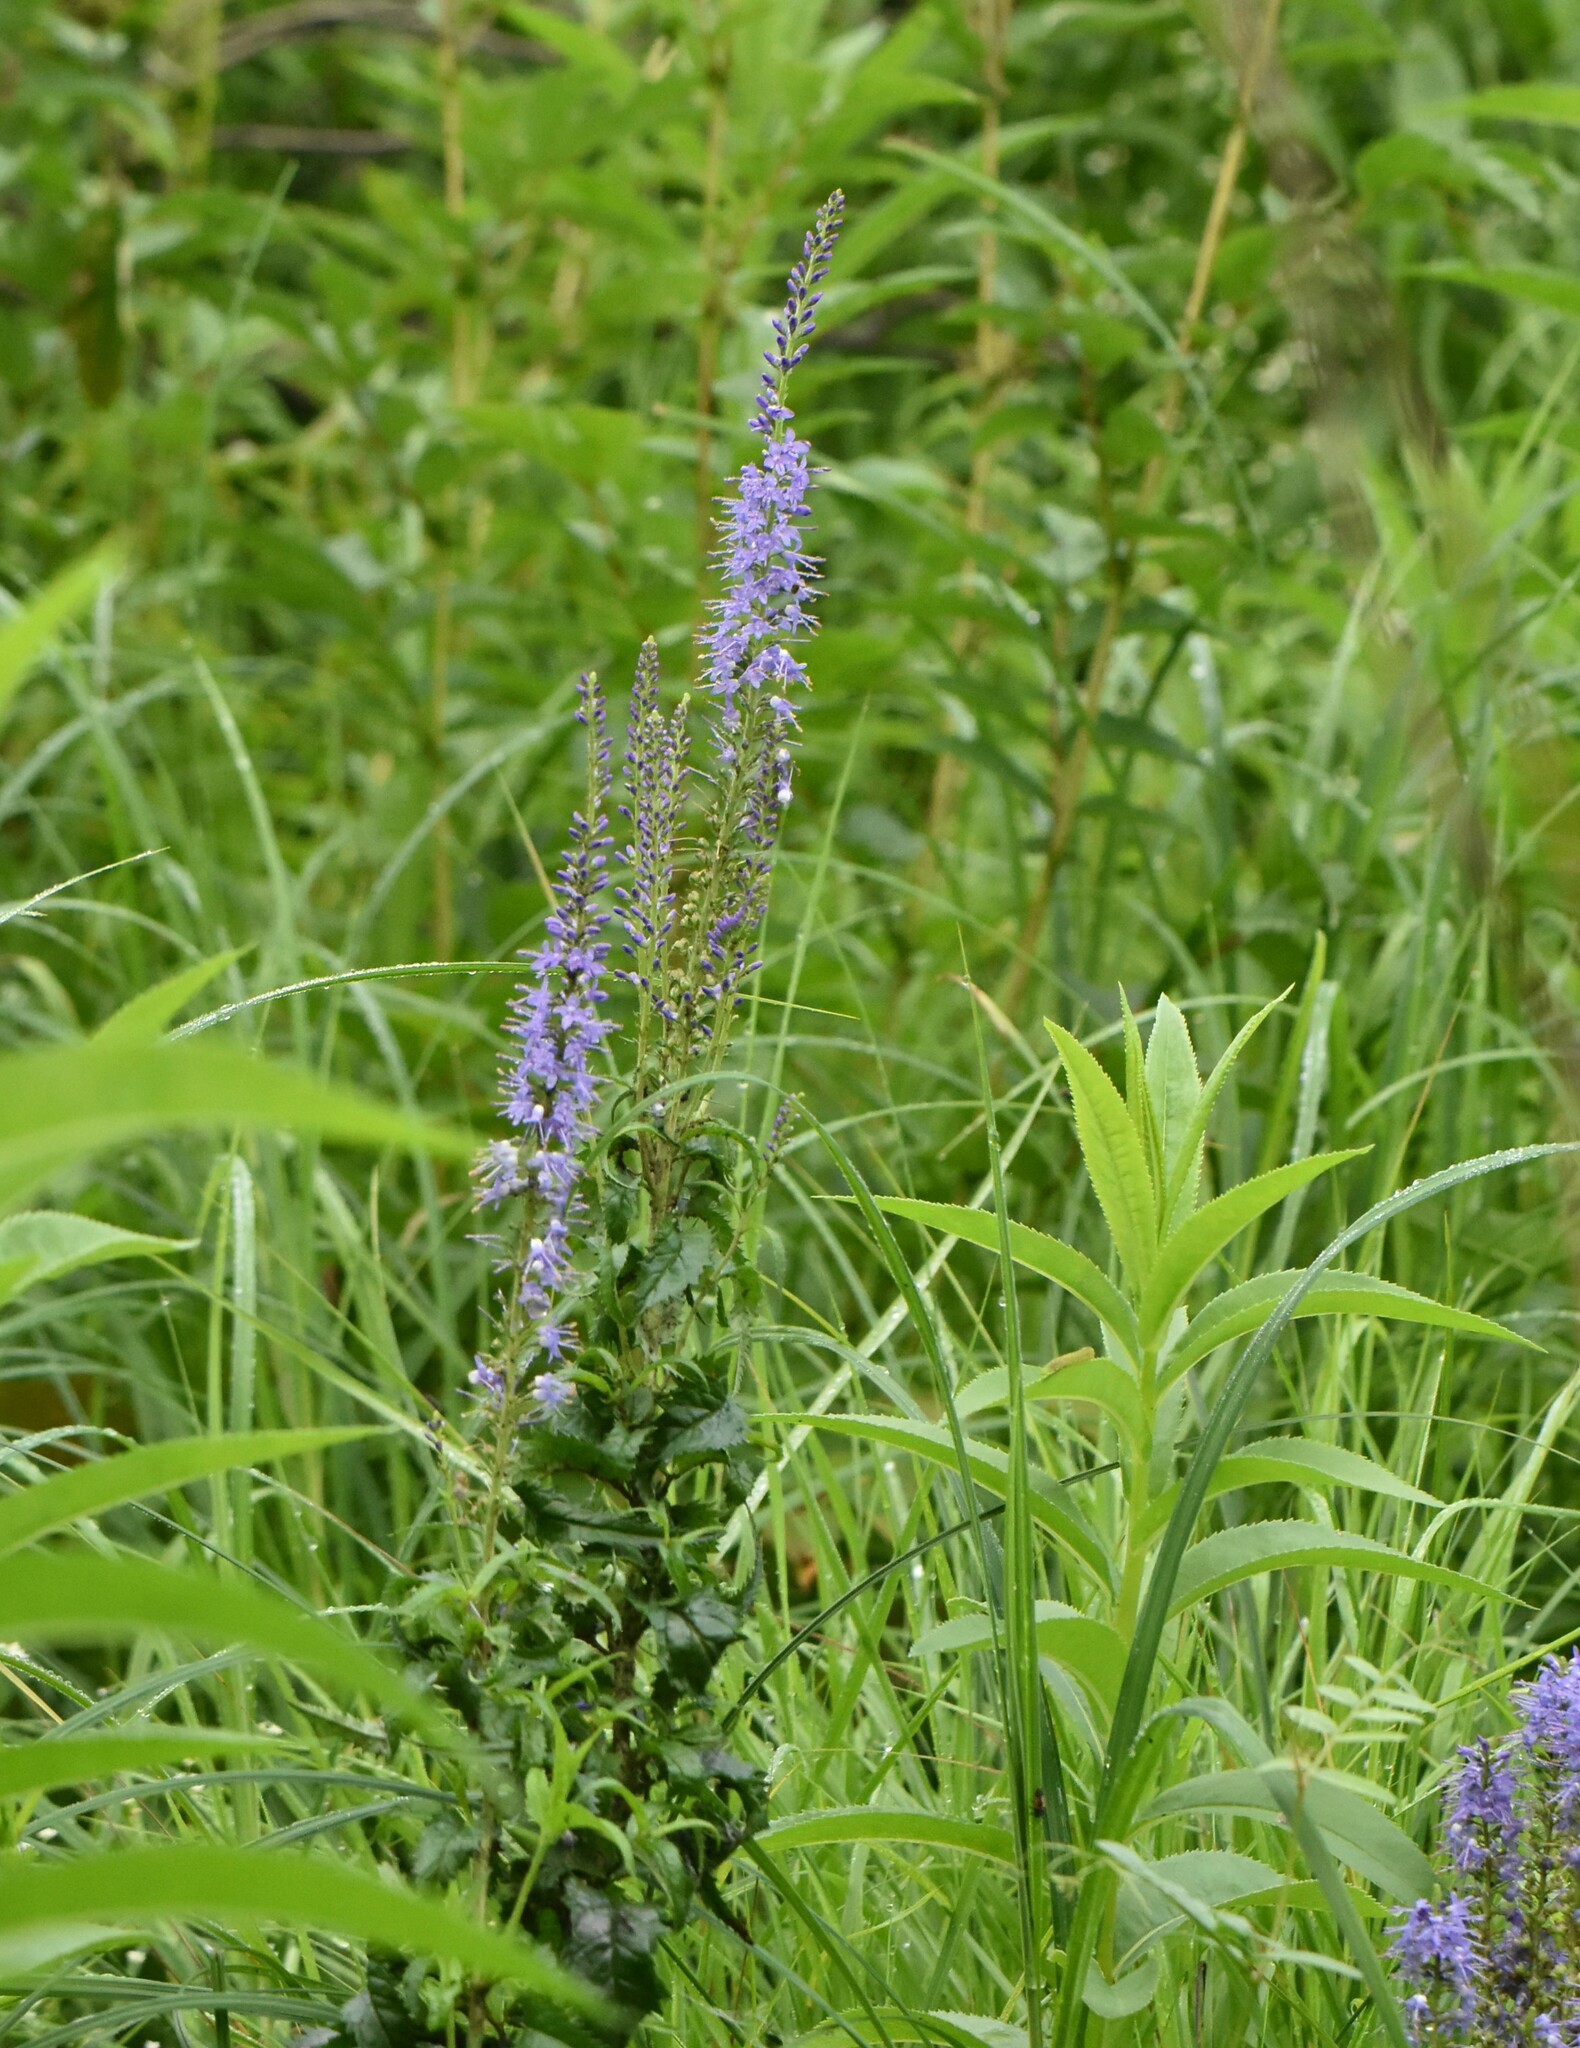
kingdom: Plantae
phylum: Tracheophyta
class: Magnoliopsida
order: Lamiales
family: Plantaginaceae
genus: Veronica
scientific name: Veronica longifolia
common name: Garden speedwell
